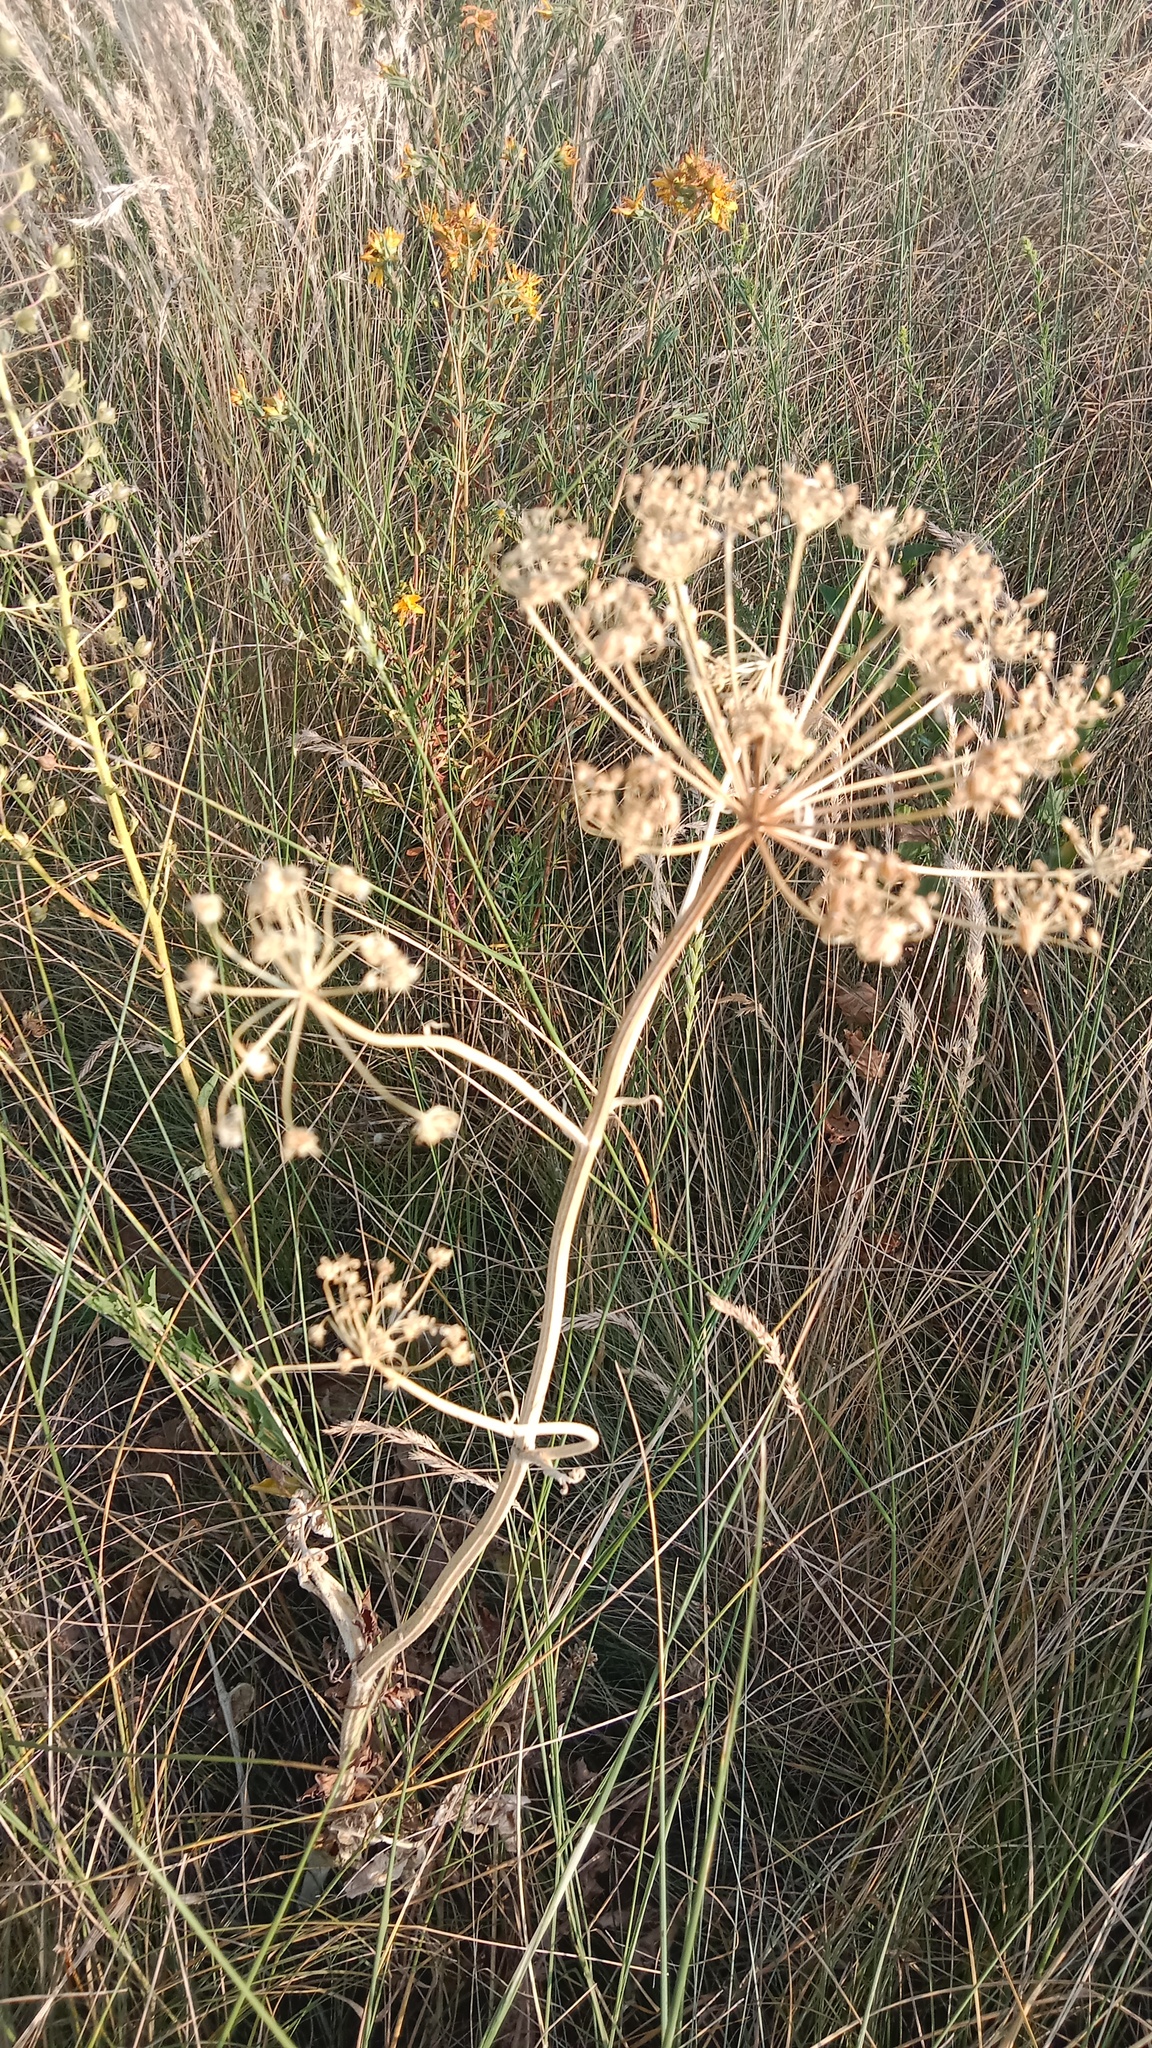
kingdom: Plantae
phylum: Tracheophyta
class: Magnoliopsida
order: Apiales
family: Apiaceae
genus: Pastinaca
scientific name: Pastinaca clausii
